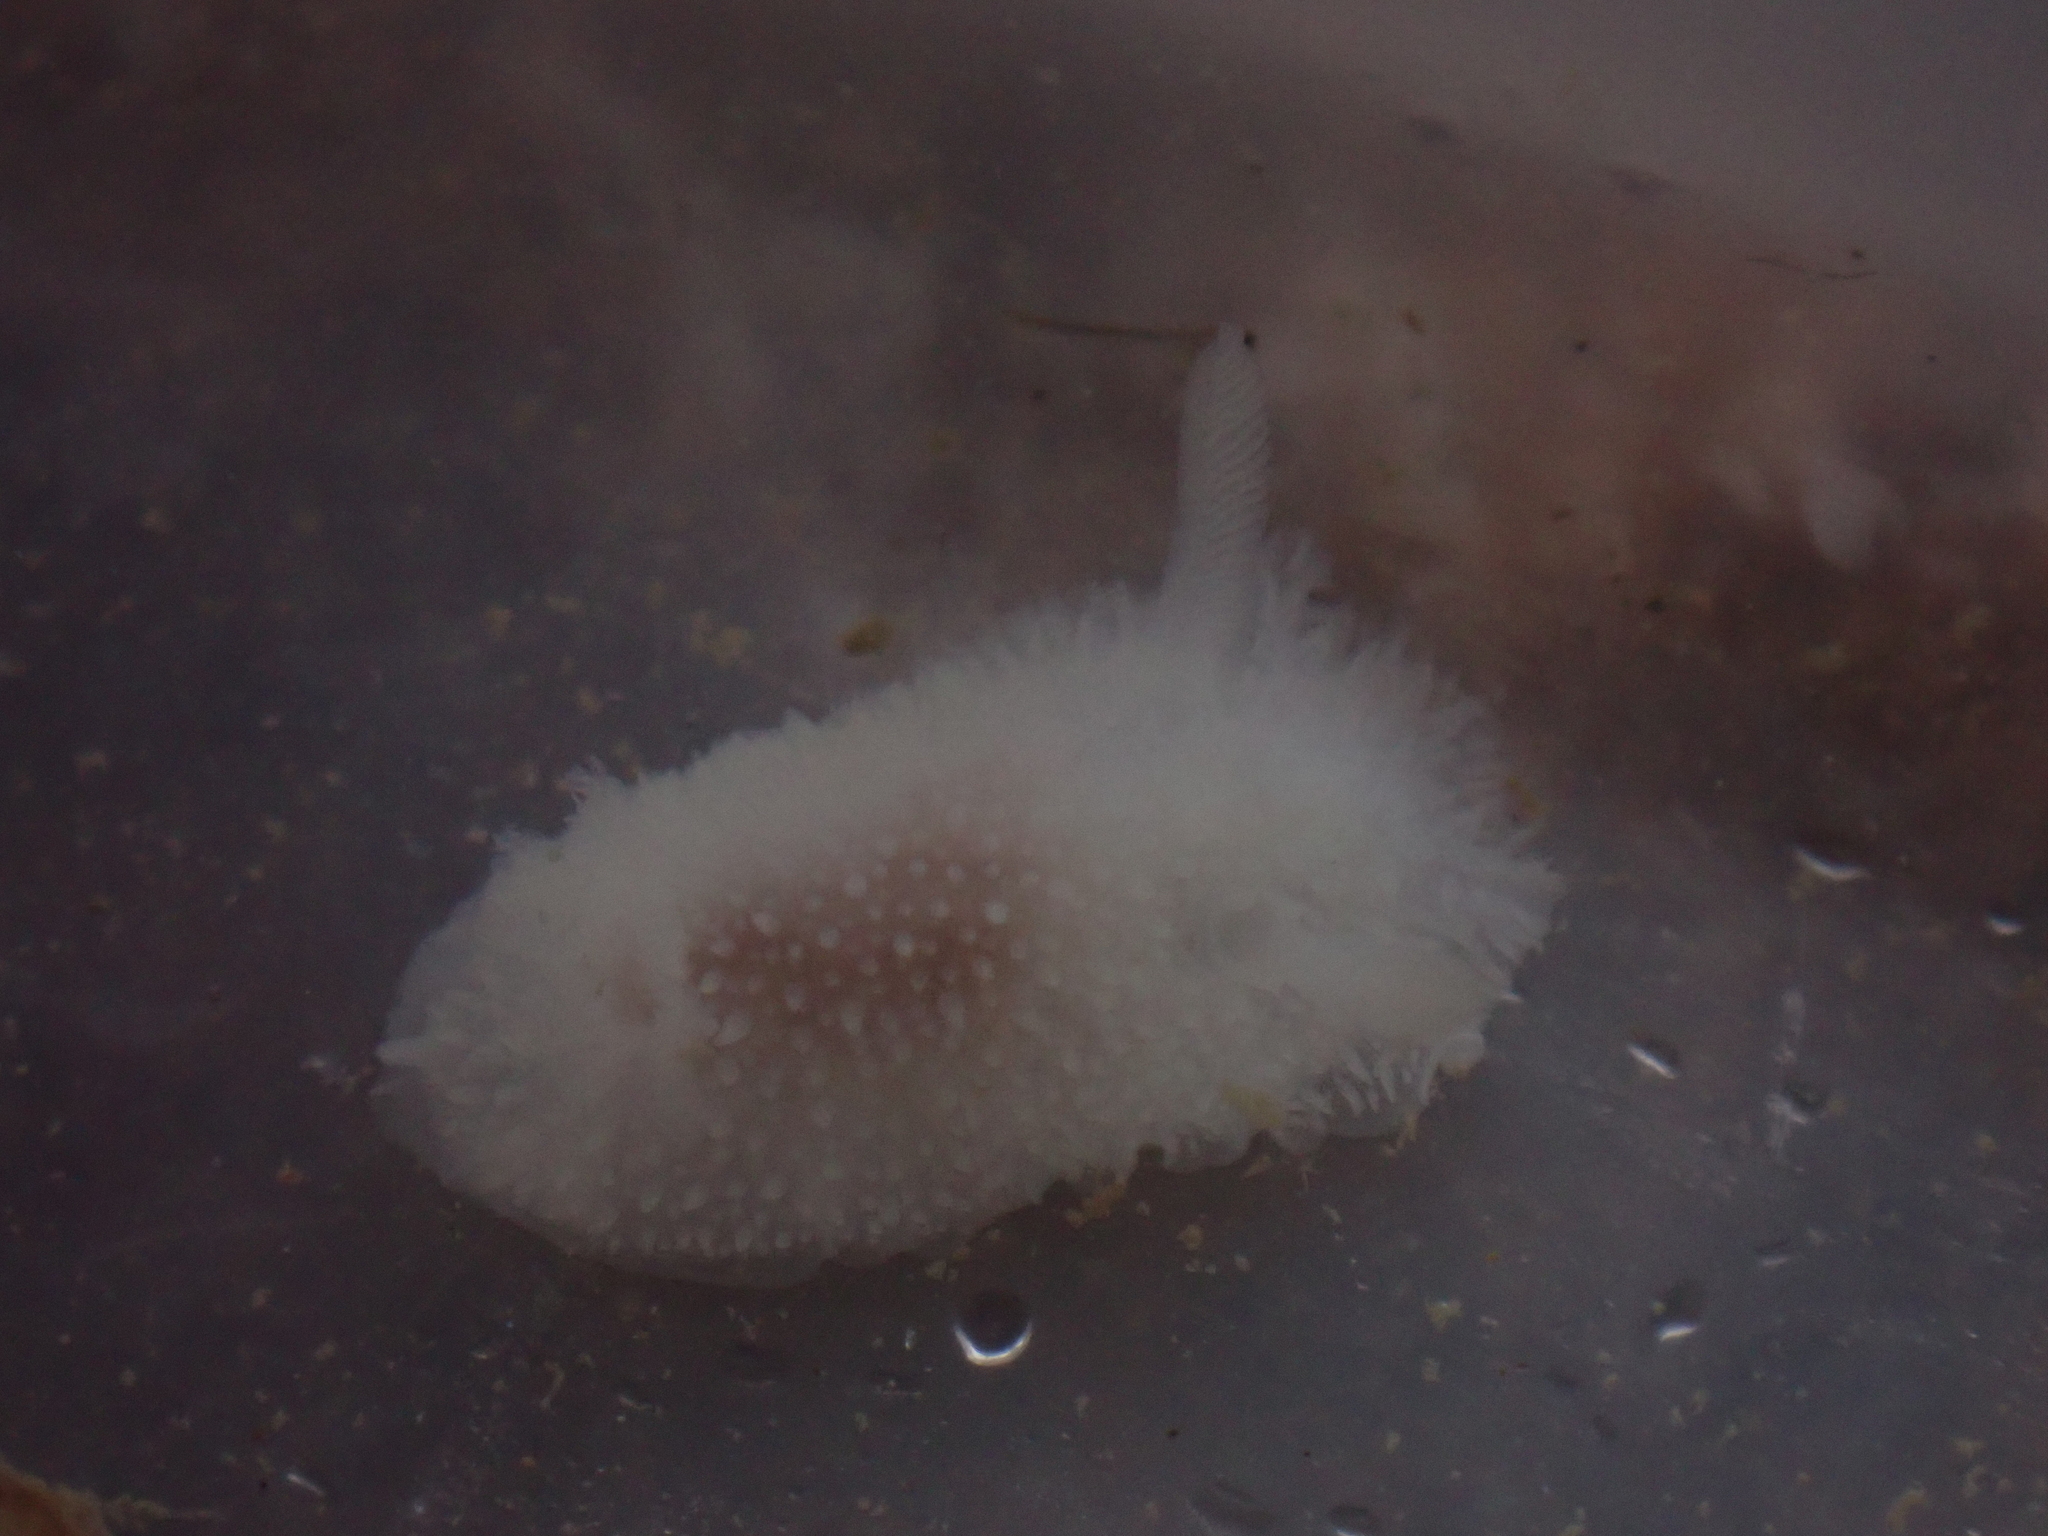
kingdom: Animalia
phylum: Mollusca
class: Gastropoda
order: Nudibranchia
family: Onchidorididae
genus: Acanthodoris
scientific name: Acanthodoris pilosa
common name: Hairy spiny doris
